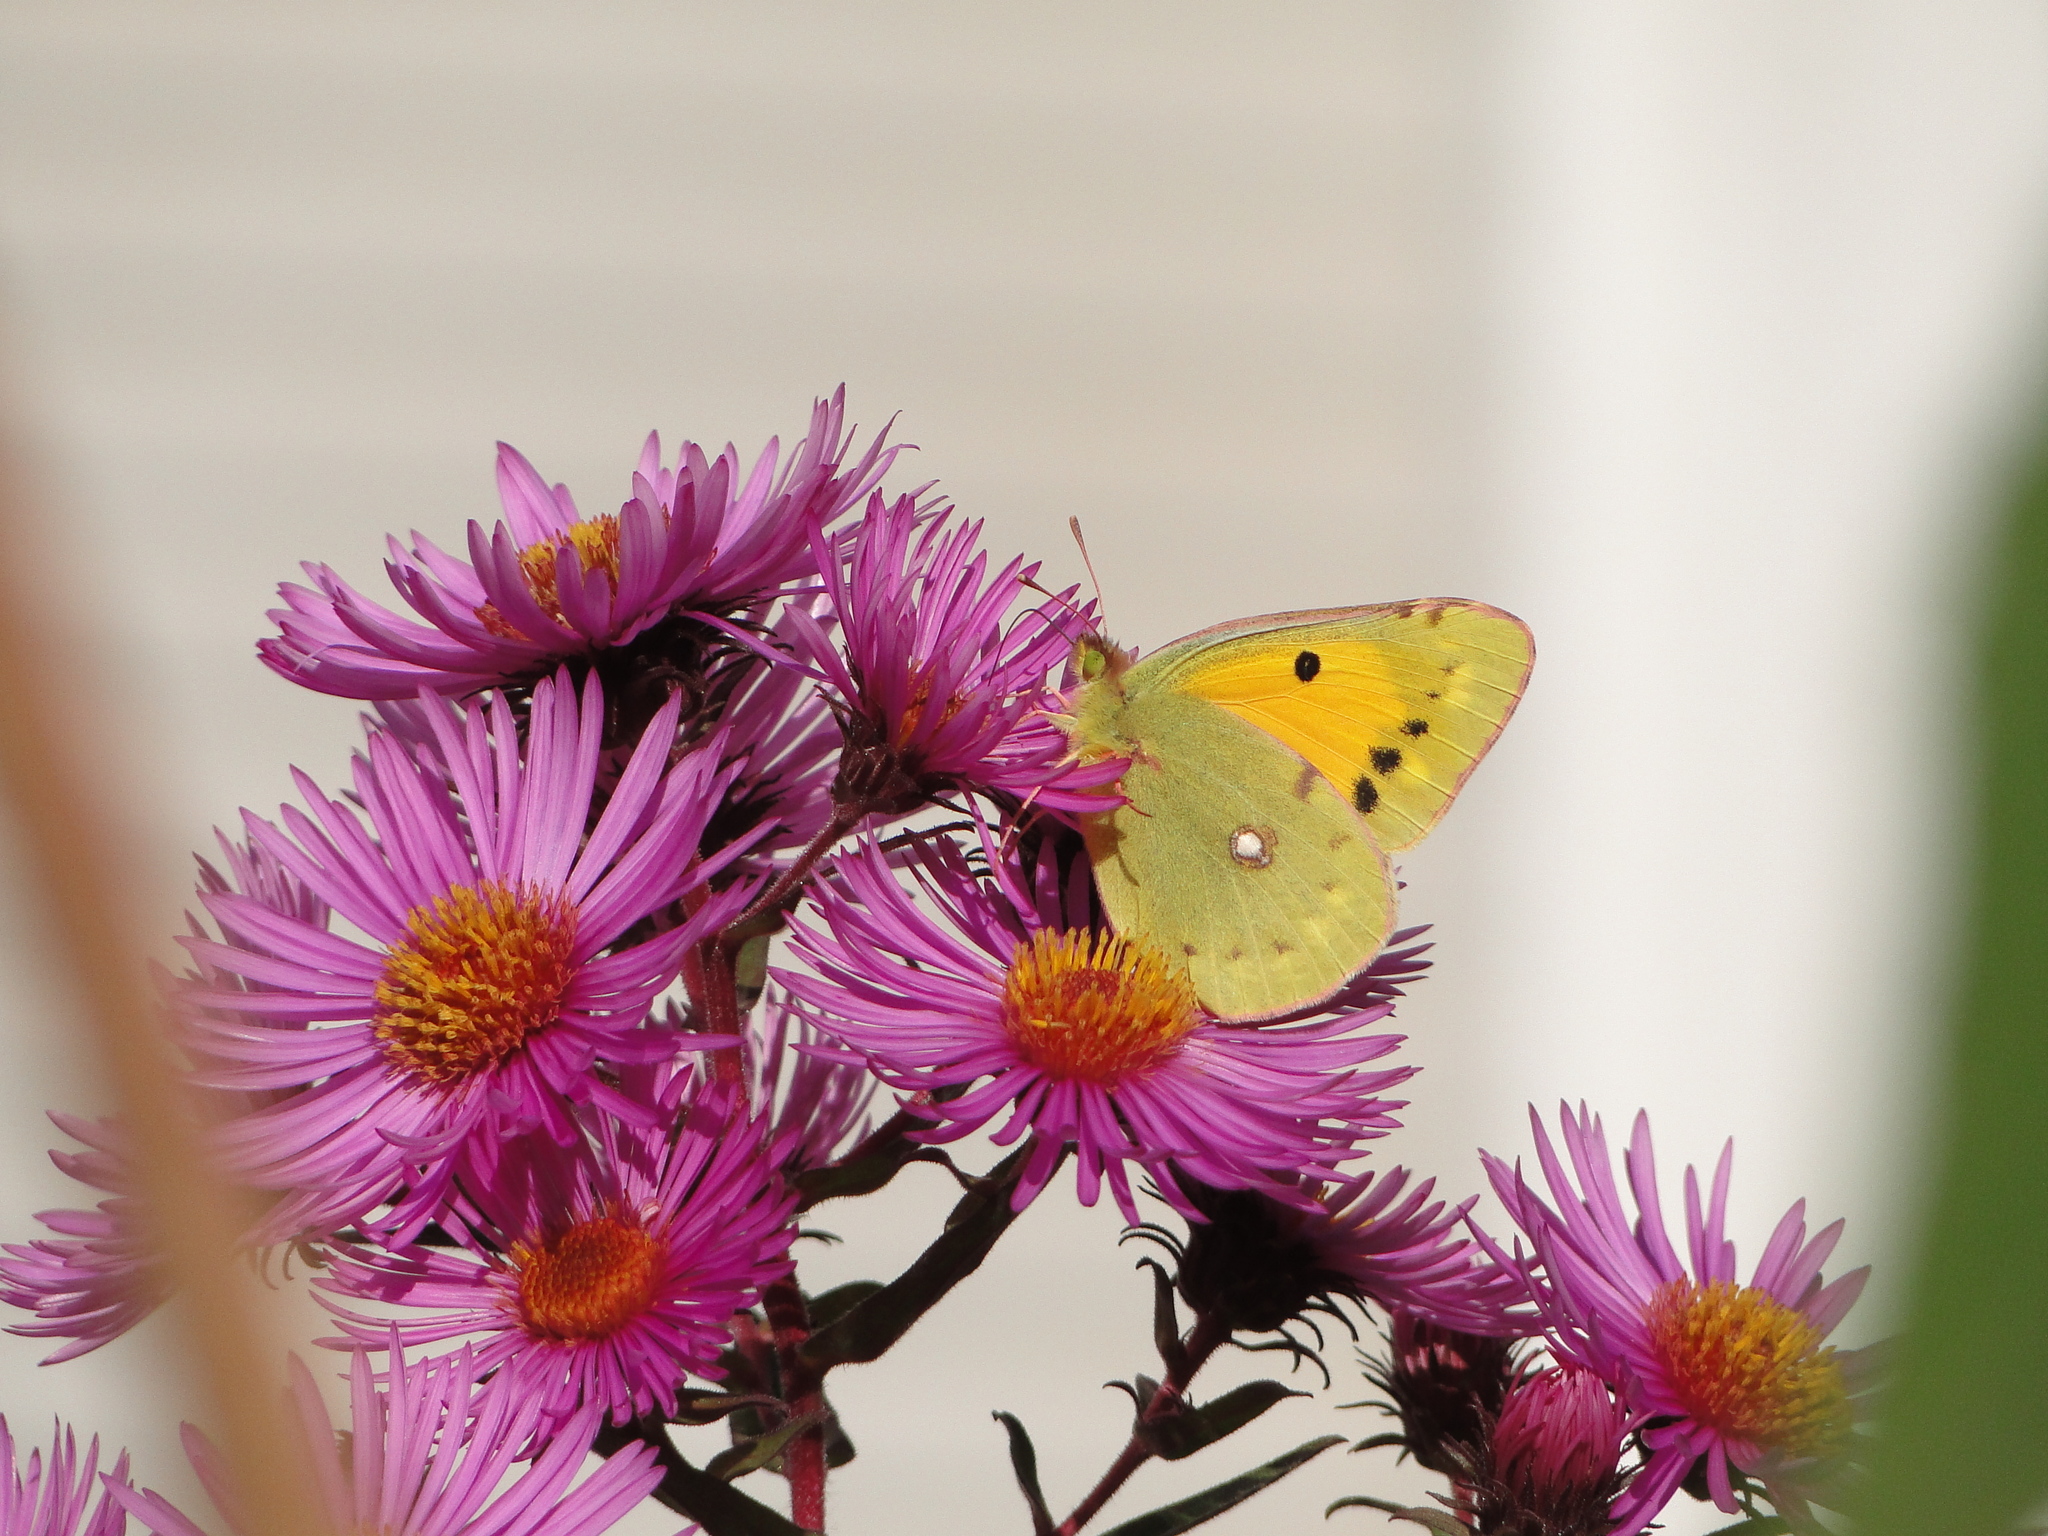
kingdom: Animalia
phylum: Arthropoda
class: Insecta
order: Lepidoptera
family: Pieridae
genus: Colias
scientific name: Colias croceus
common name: Clouded yellow
